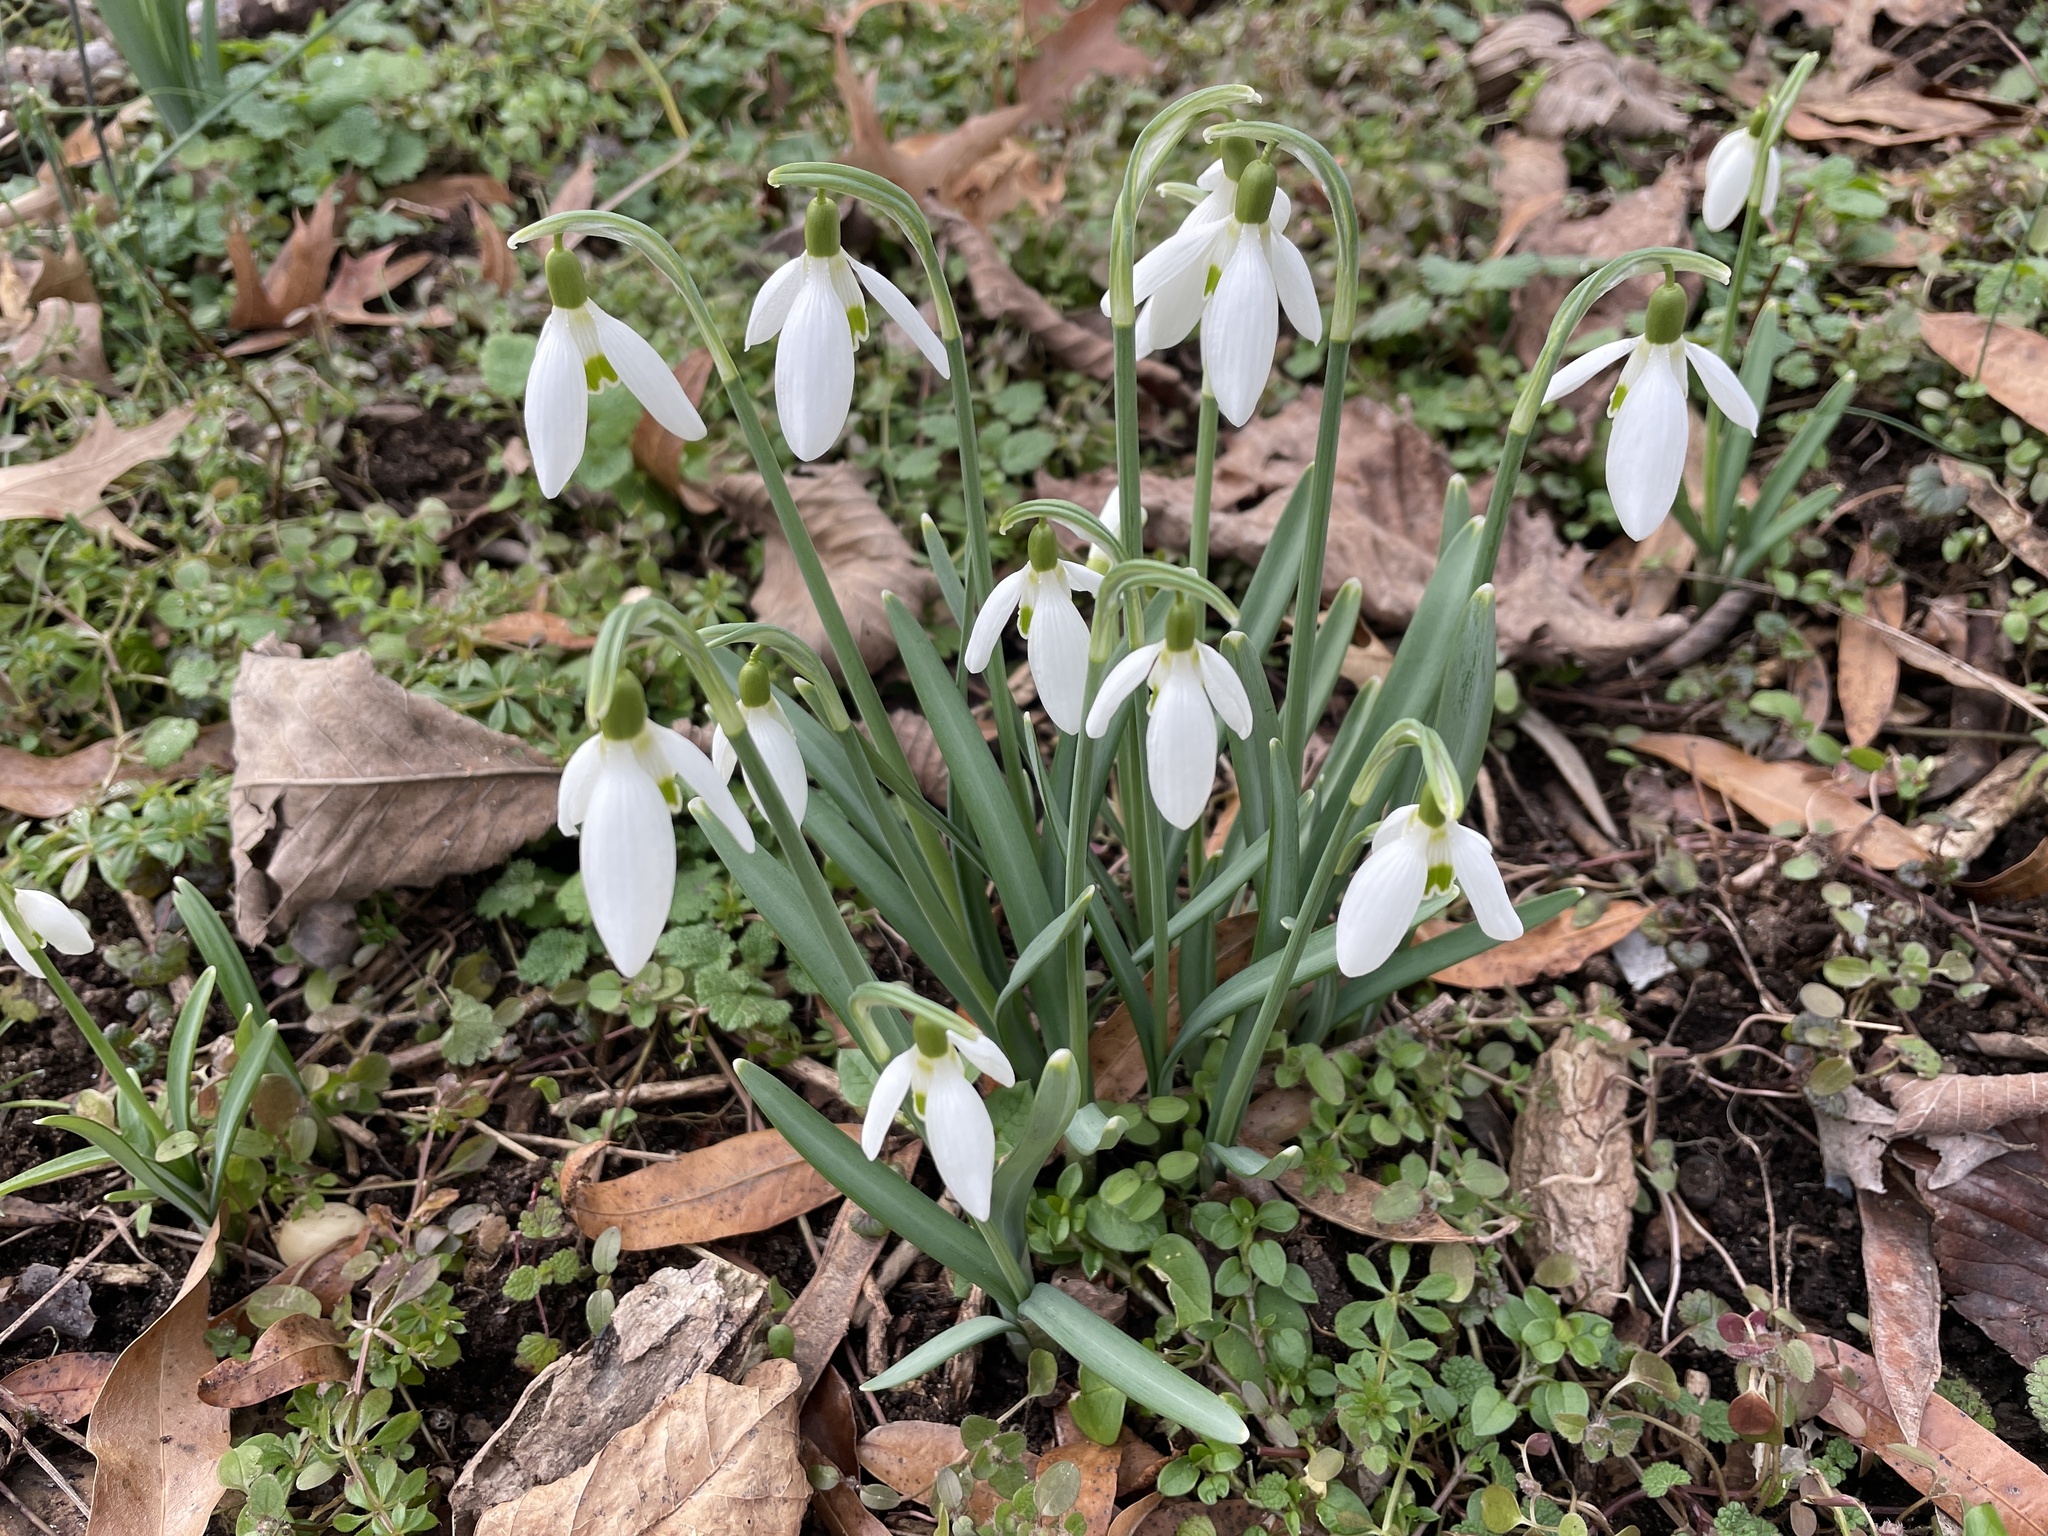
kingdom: Plantae
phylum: Tracheophyta
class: Liliopsida
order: Asparagales
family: Amaryllidaceae
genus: Galanthus
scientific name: Galanthus nivalis
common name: Snowdrop
